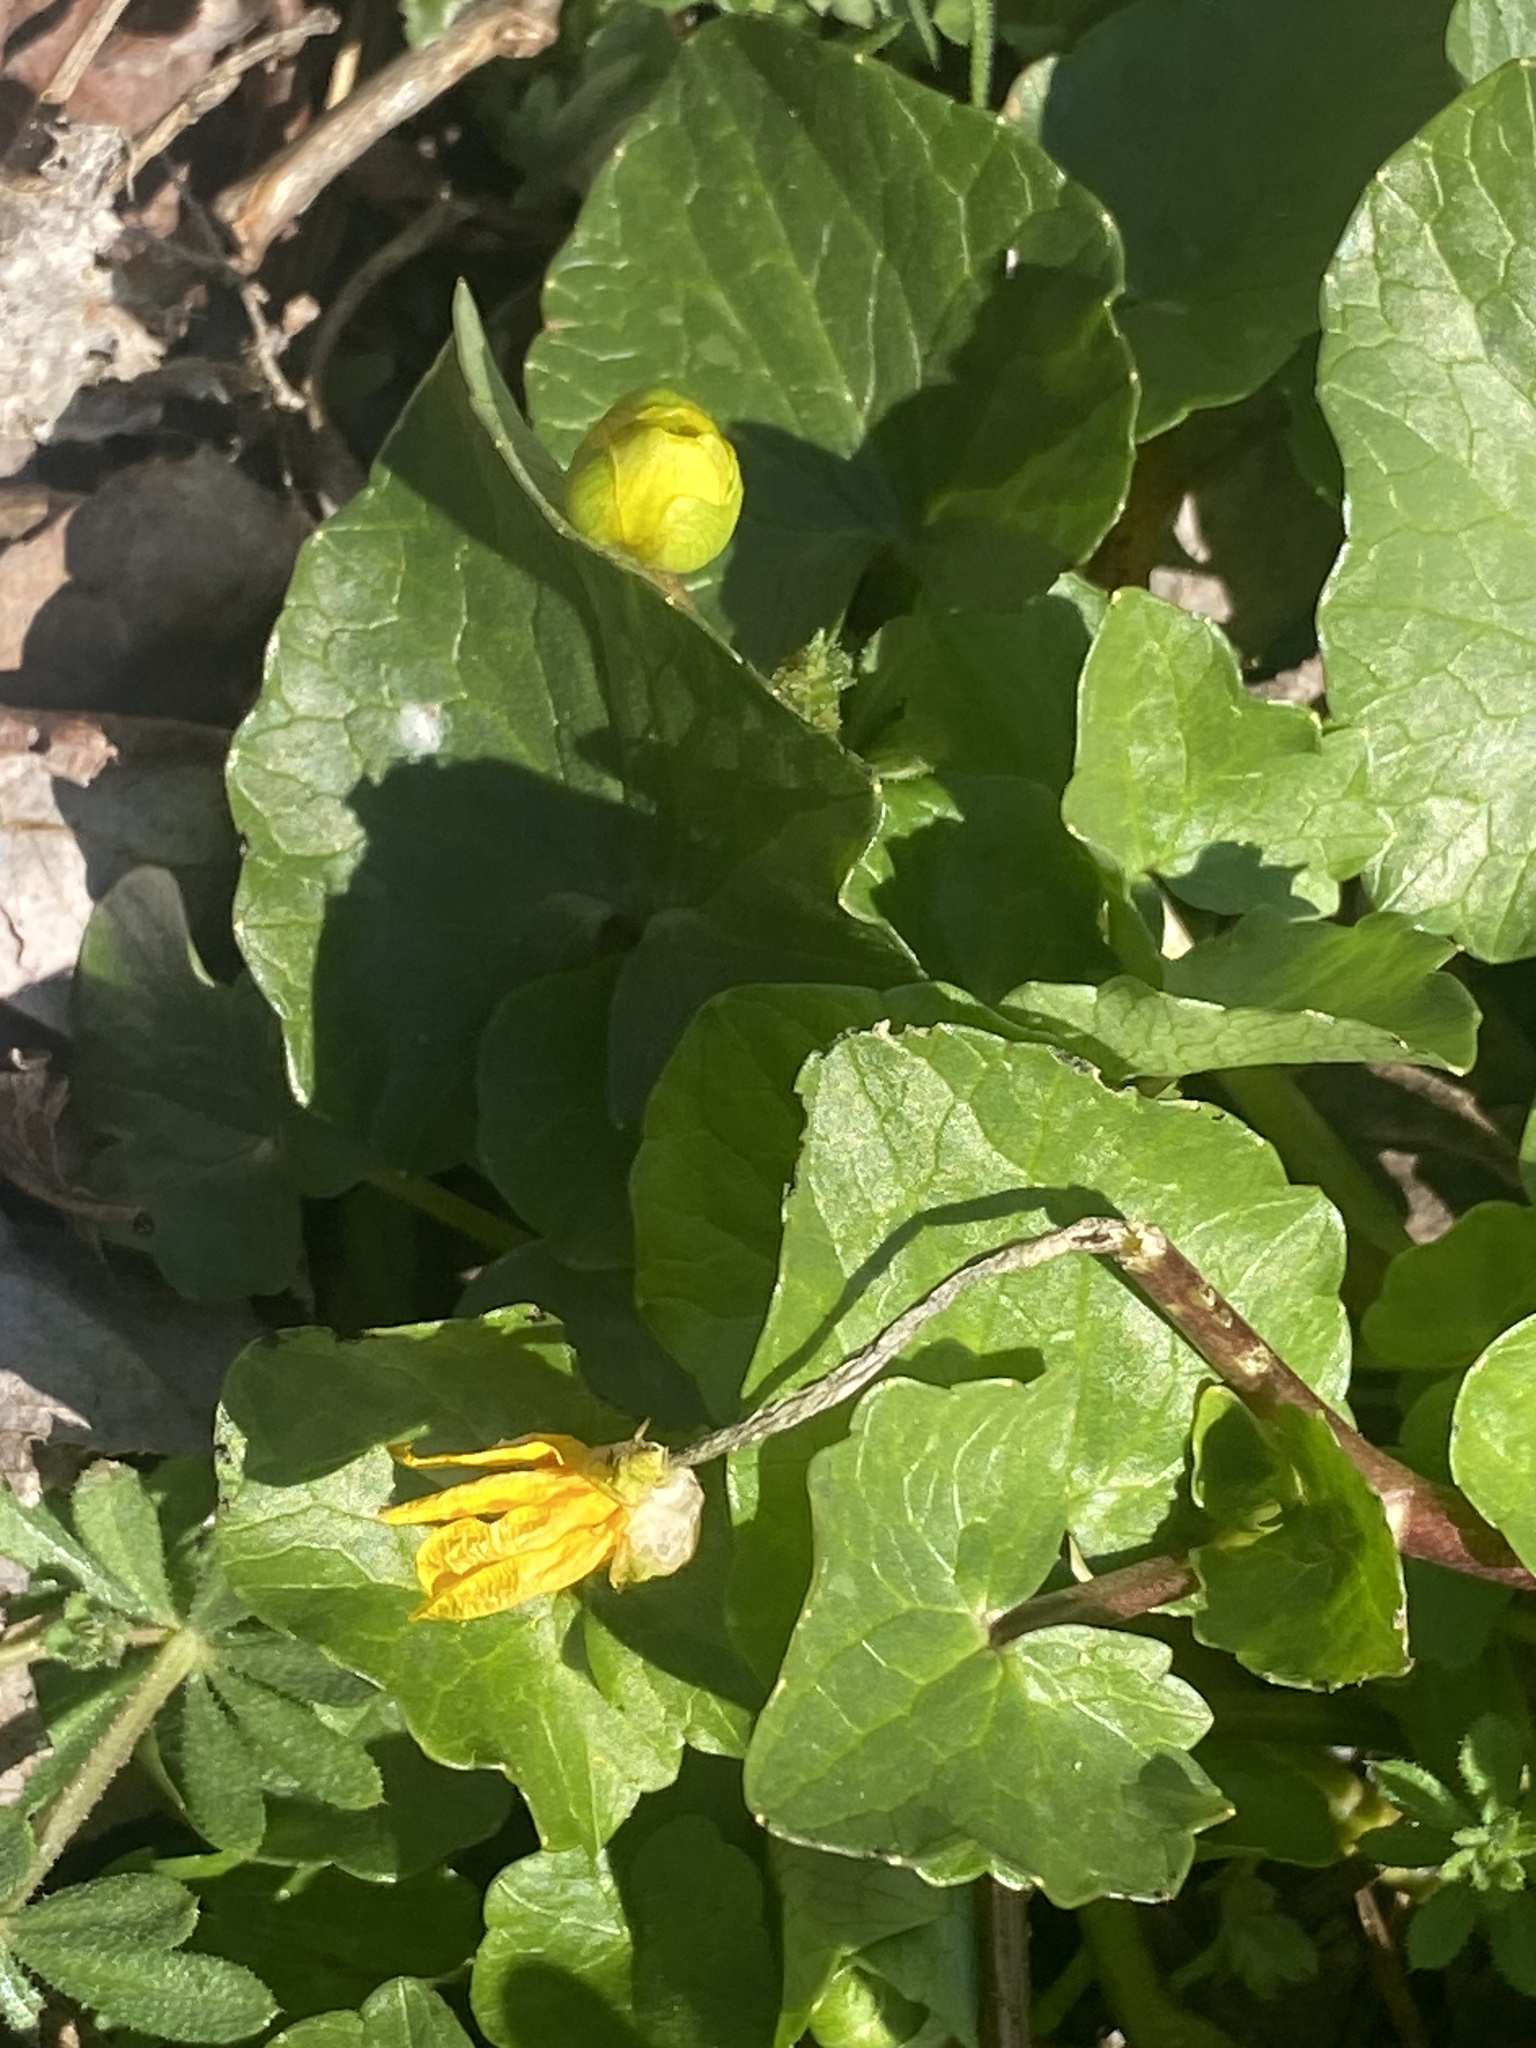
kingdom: Plantae
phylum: Tracheophyta
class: Magnoliopsida
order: Ranunculales
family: Ranunculaceae
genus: Ficaria
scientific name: Ficaria verna
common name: Lesser celandine
